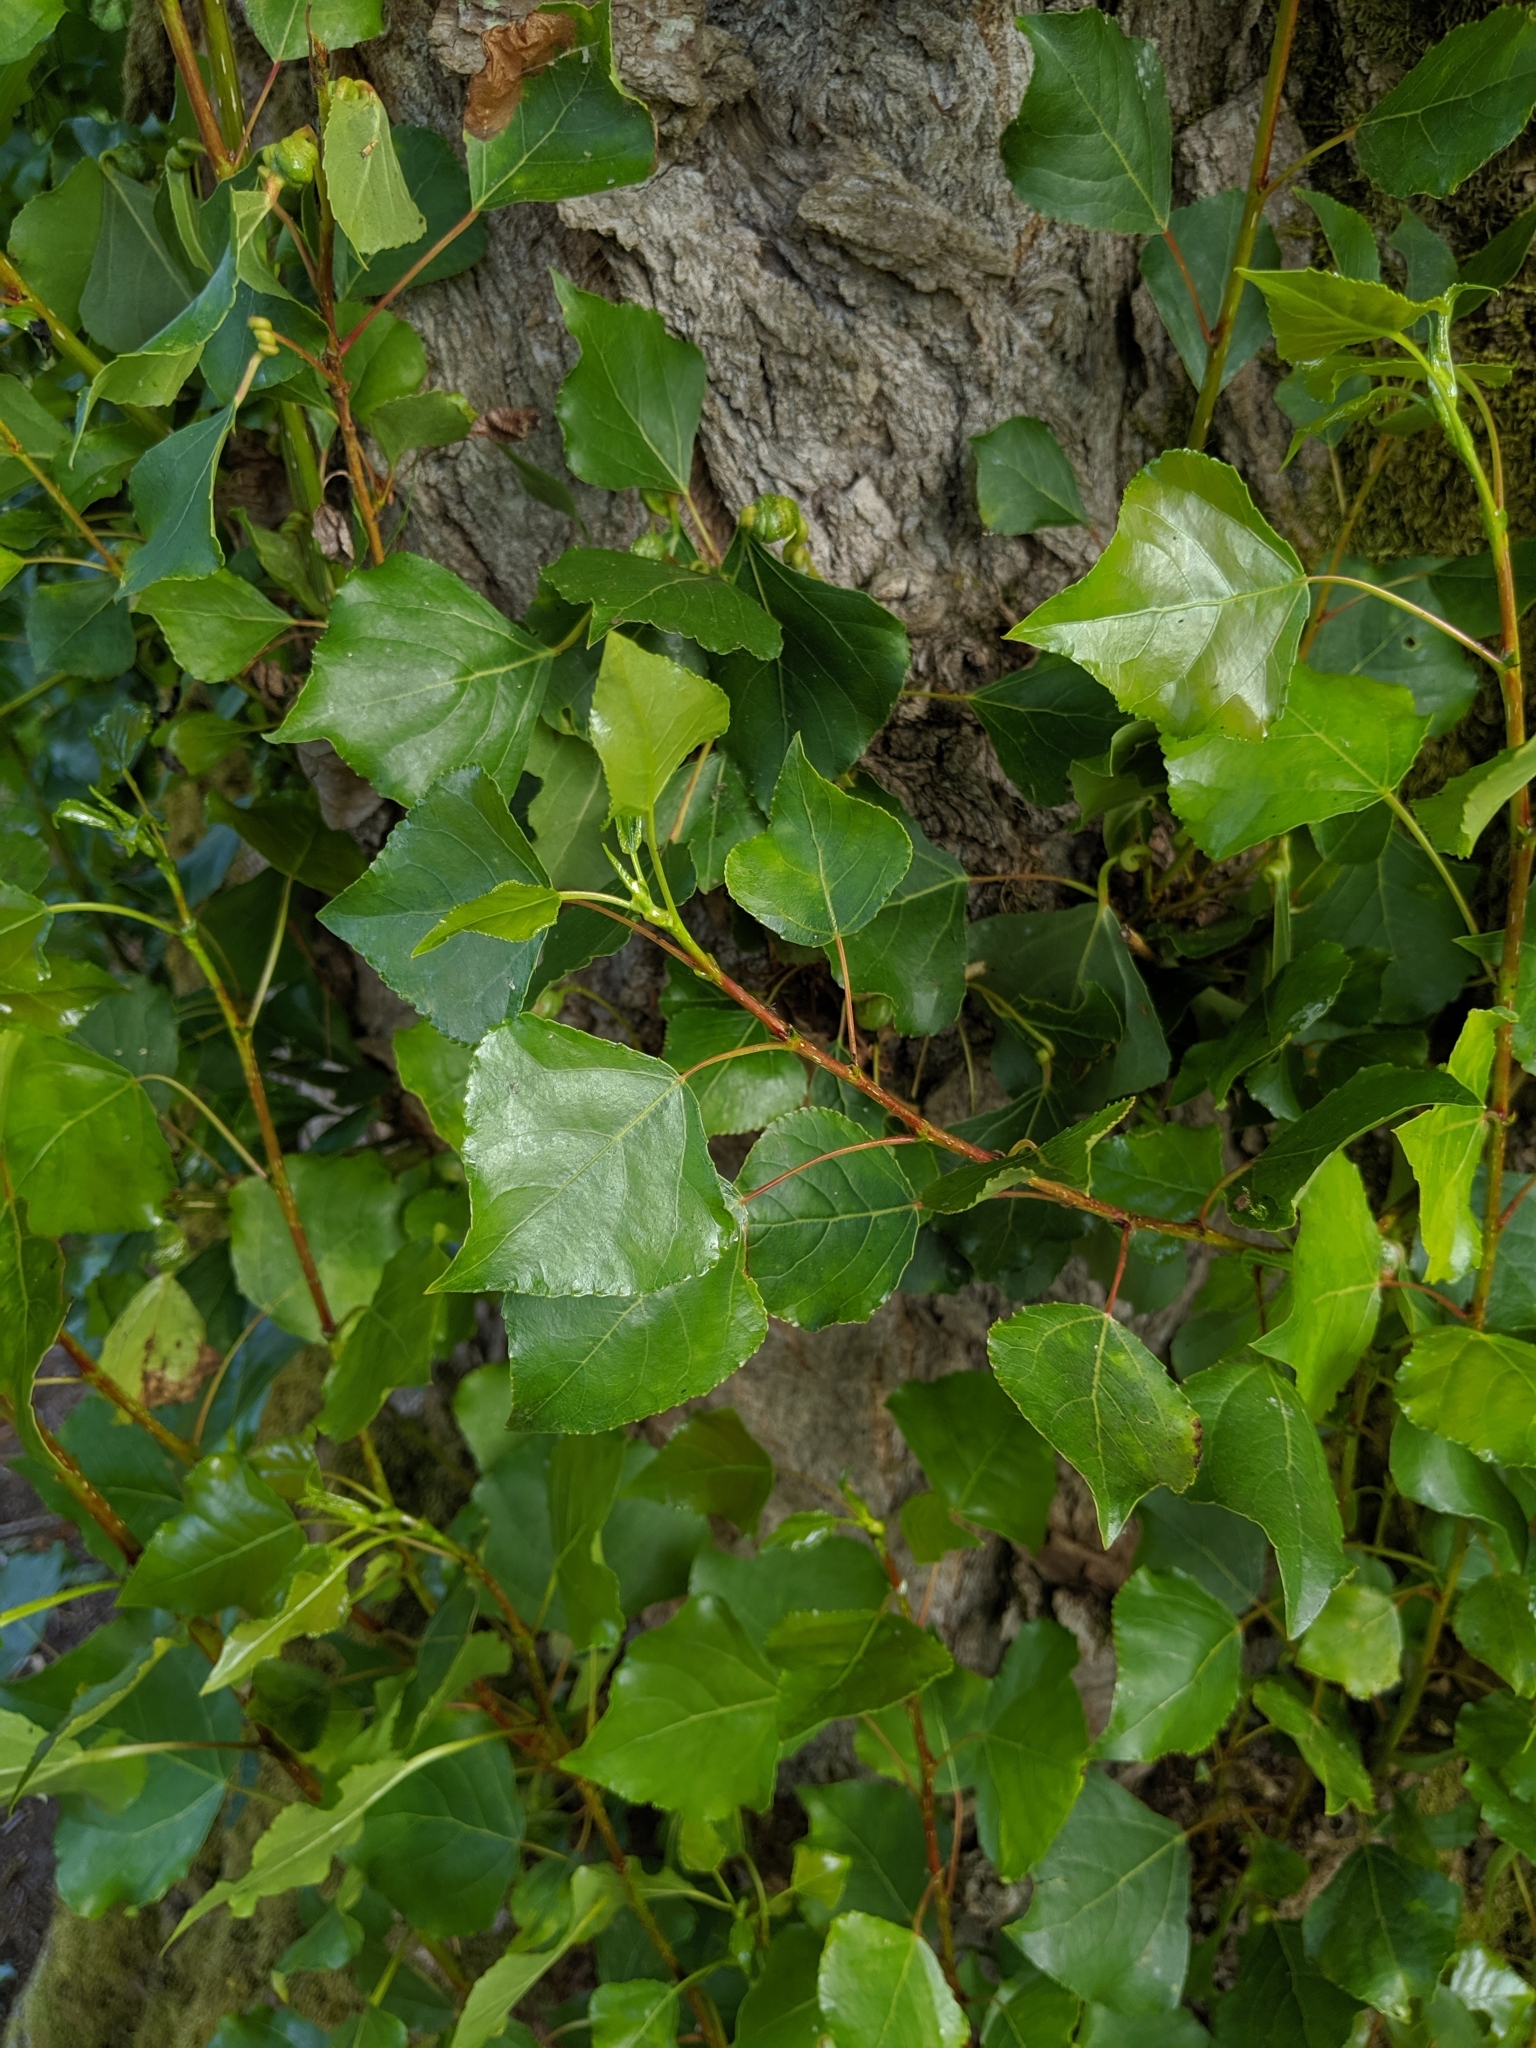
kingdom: Plantae
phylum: Tracheophyta
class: Magnoliopsida
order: Malpighiales
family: Salicaceae
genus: Populus
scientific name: Populus nigra
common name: Black poplar
